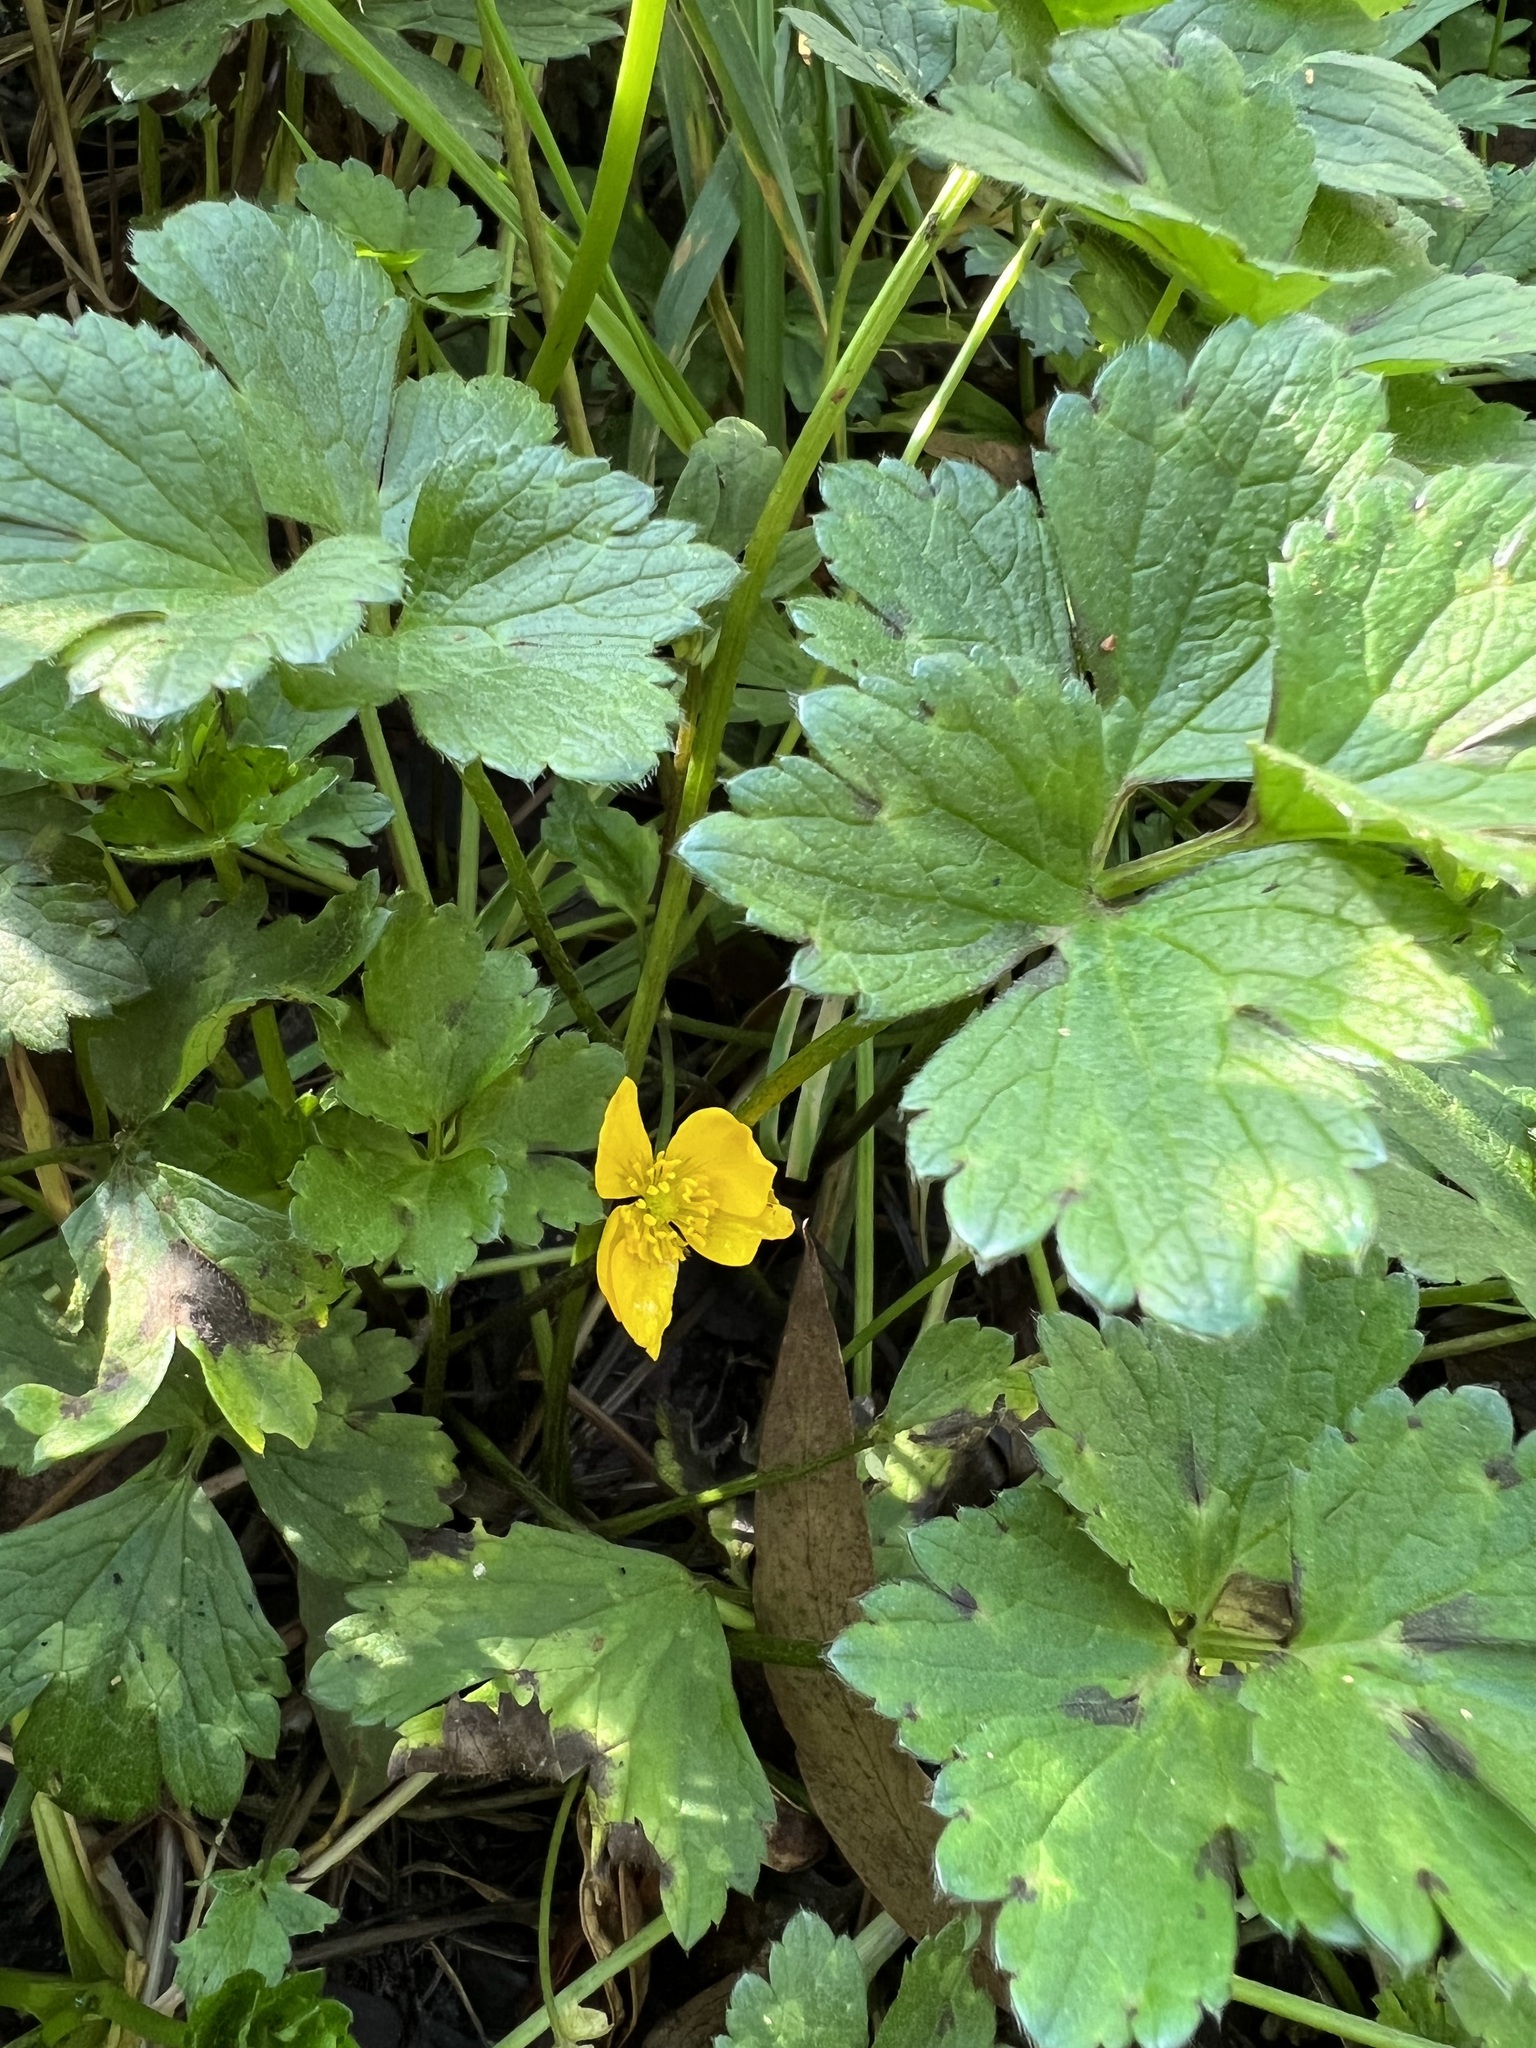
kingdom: Plantae
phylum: Tracheophyta
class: Magnoliopsida
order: Ranunculales
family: Ranunculaceae
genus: Ranunculus
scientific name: Ranunculus repens
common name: Creeping buttercup
